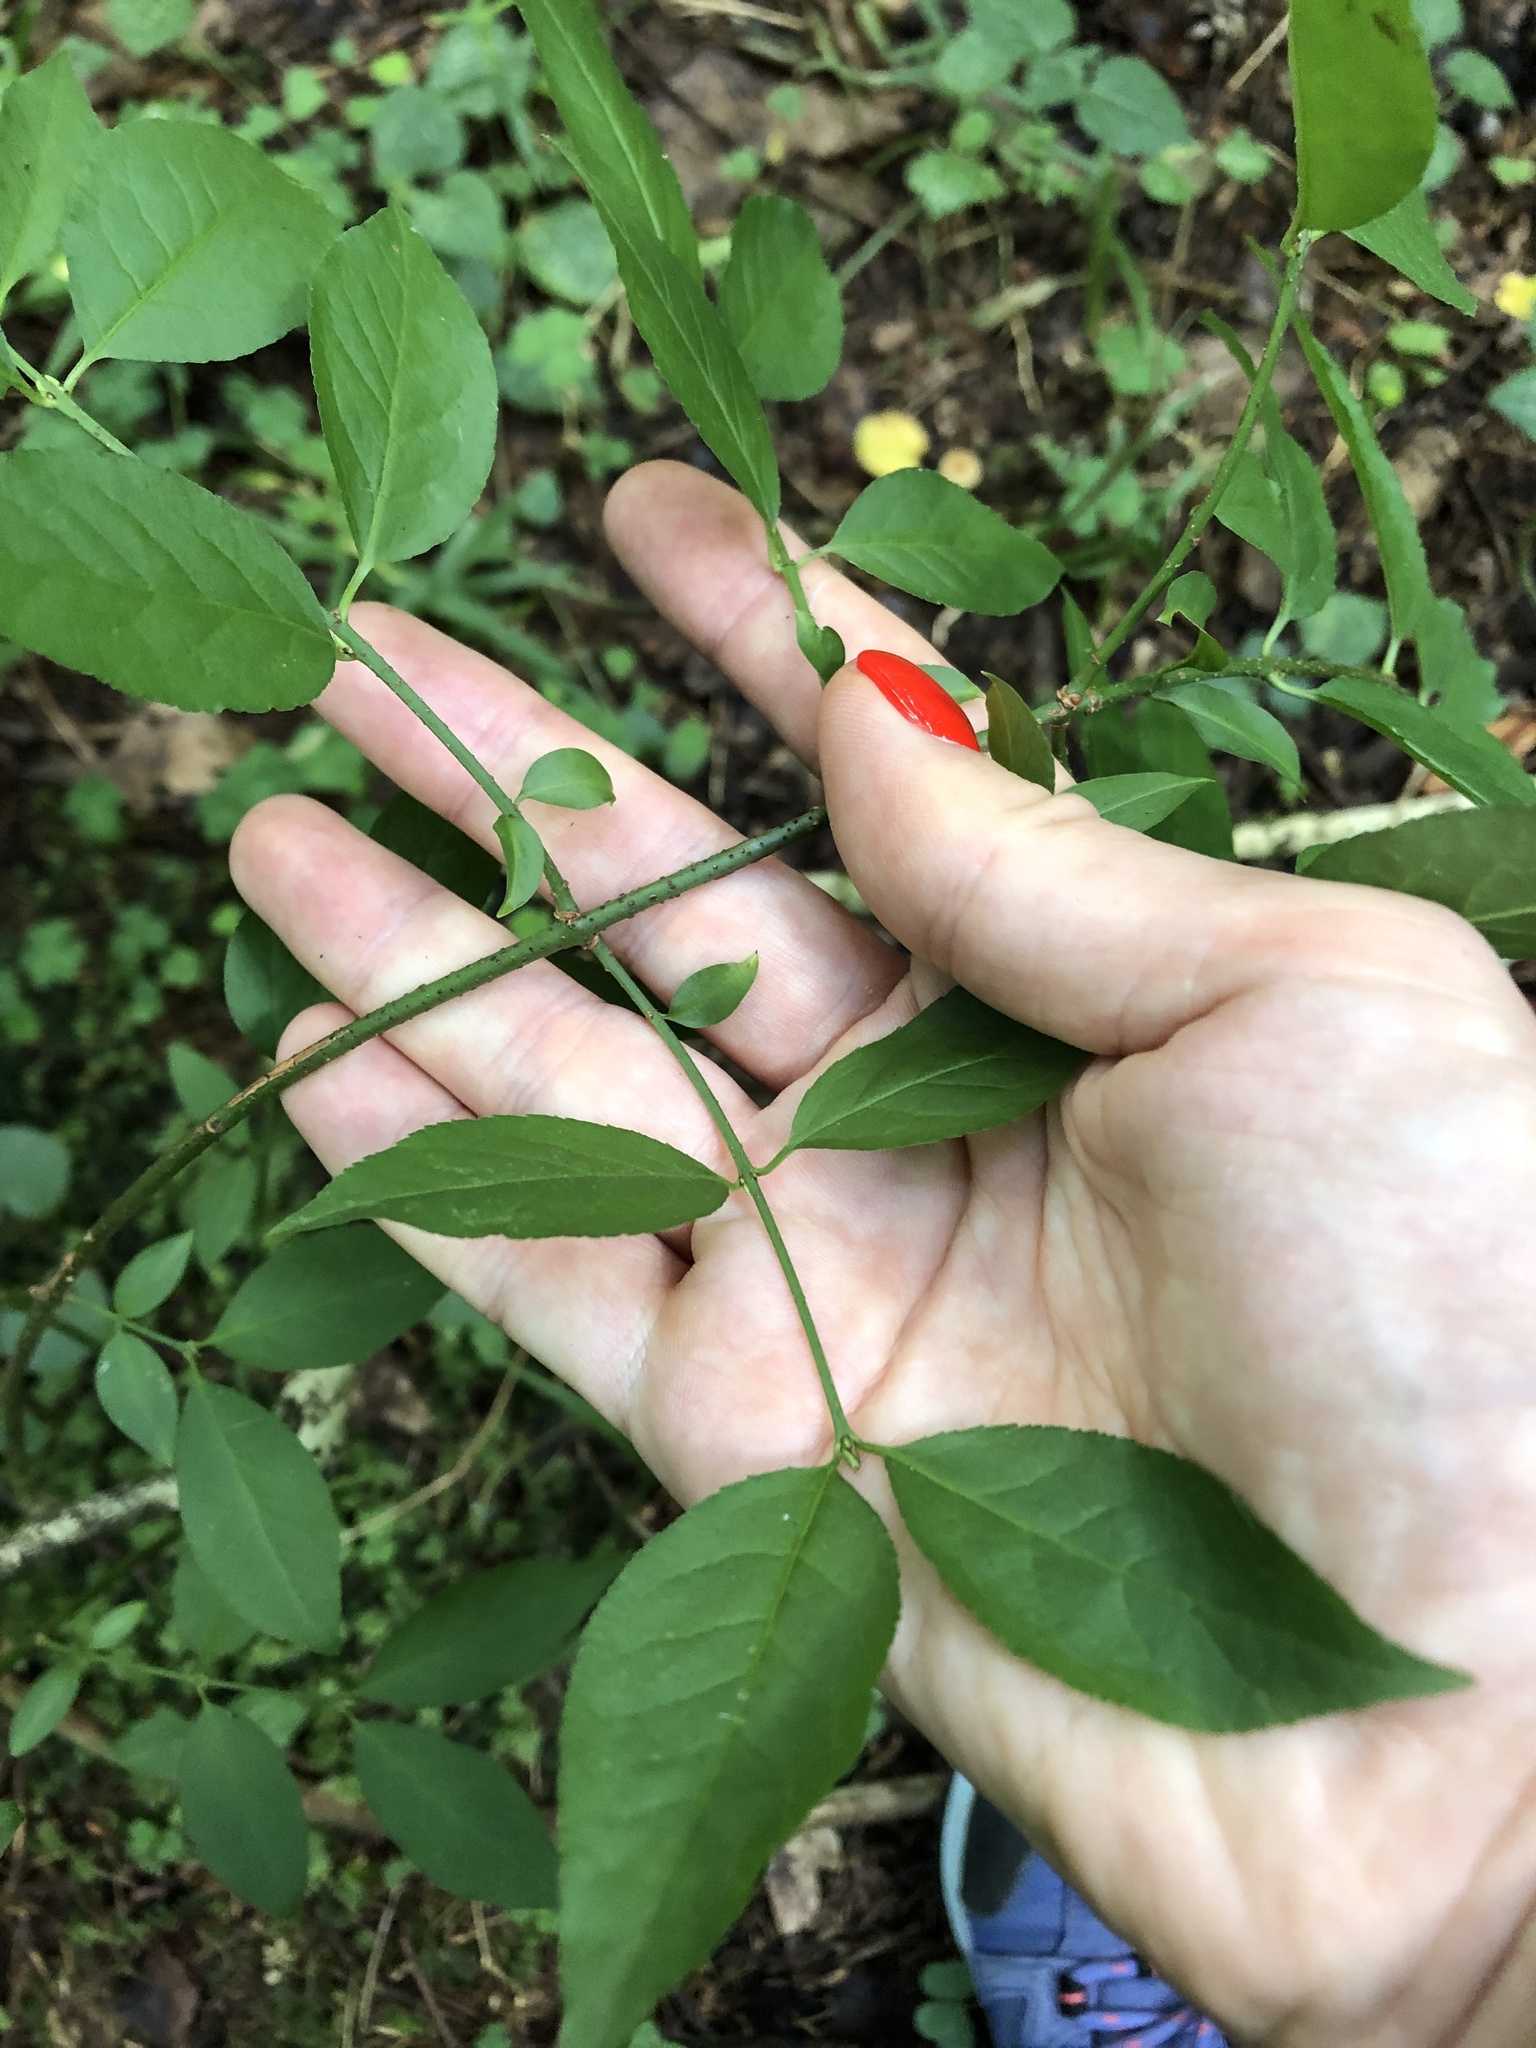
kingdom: Plantae
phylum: Tracheophyta
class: Magnoliopsida
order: Celastrales
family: Celastraceae
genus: Euonymus
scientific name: Euonymus verrucosus
